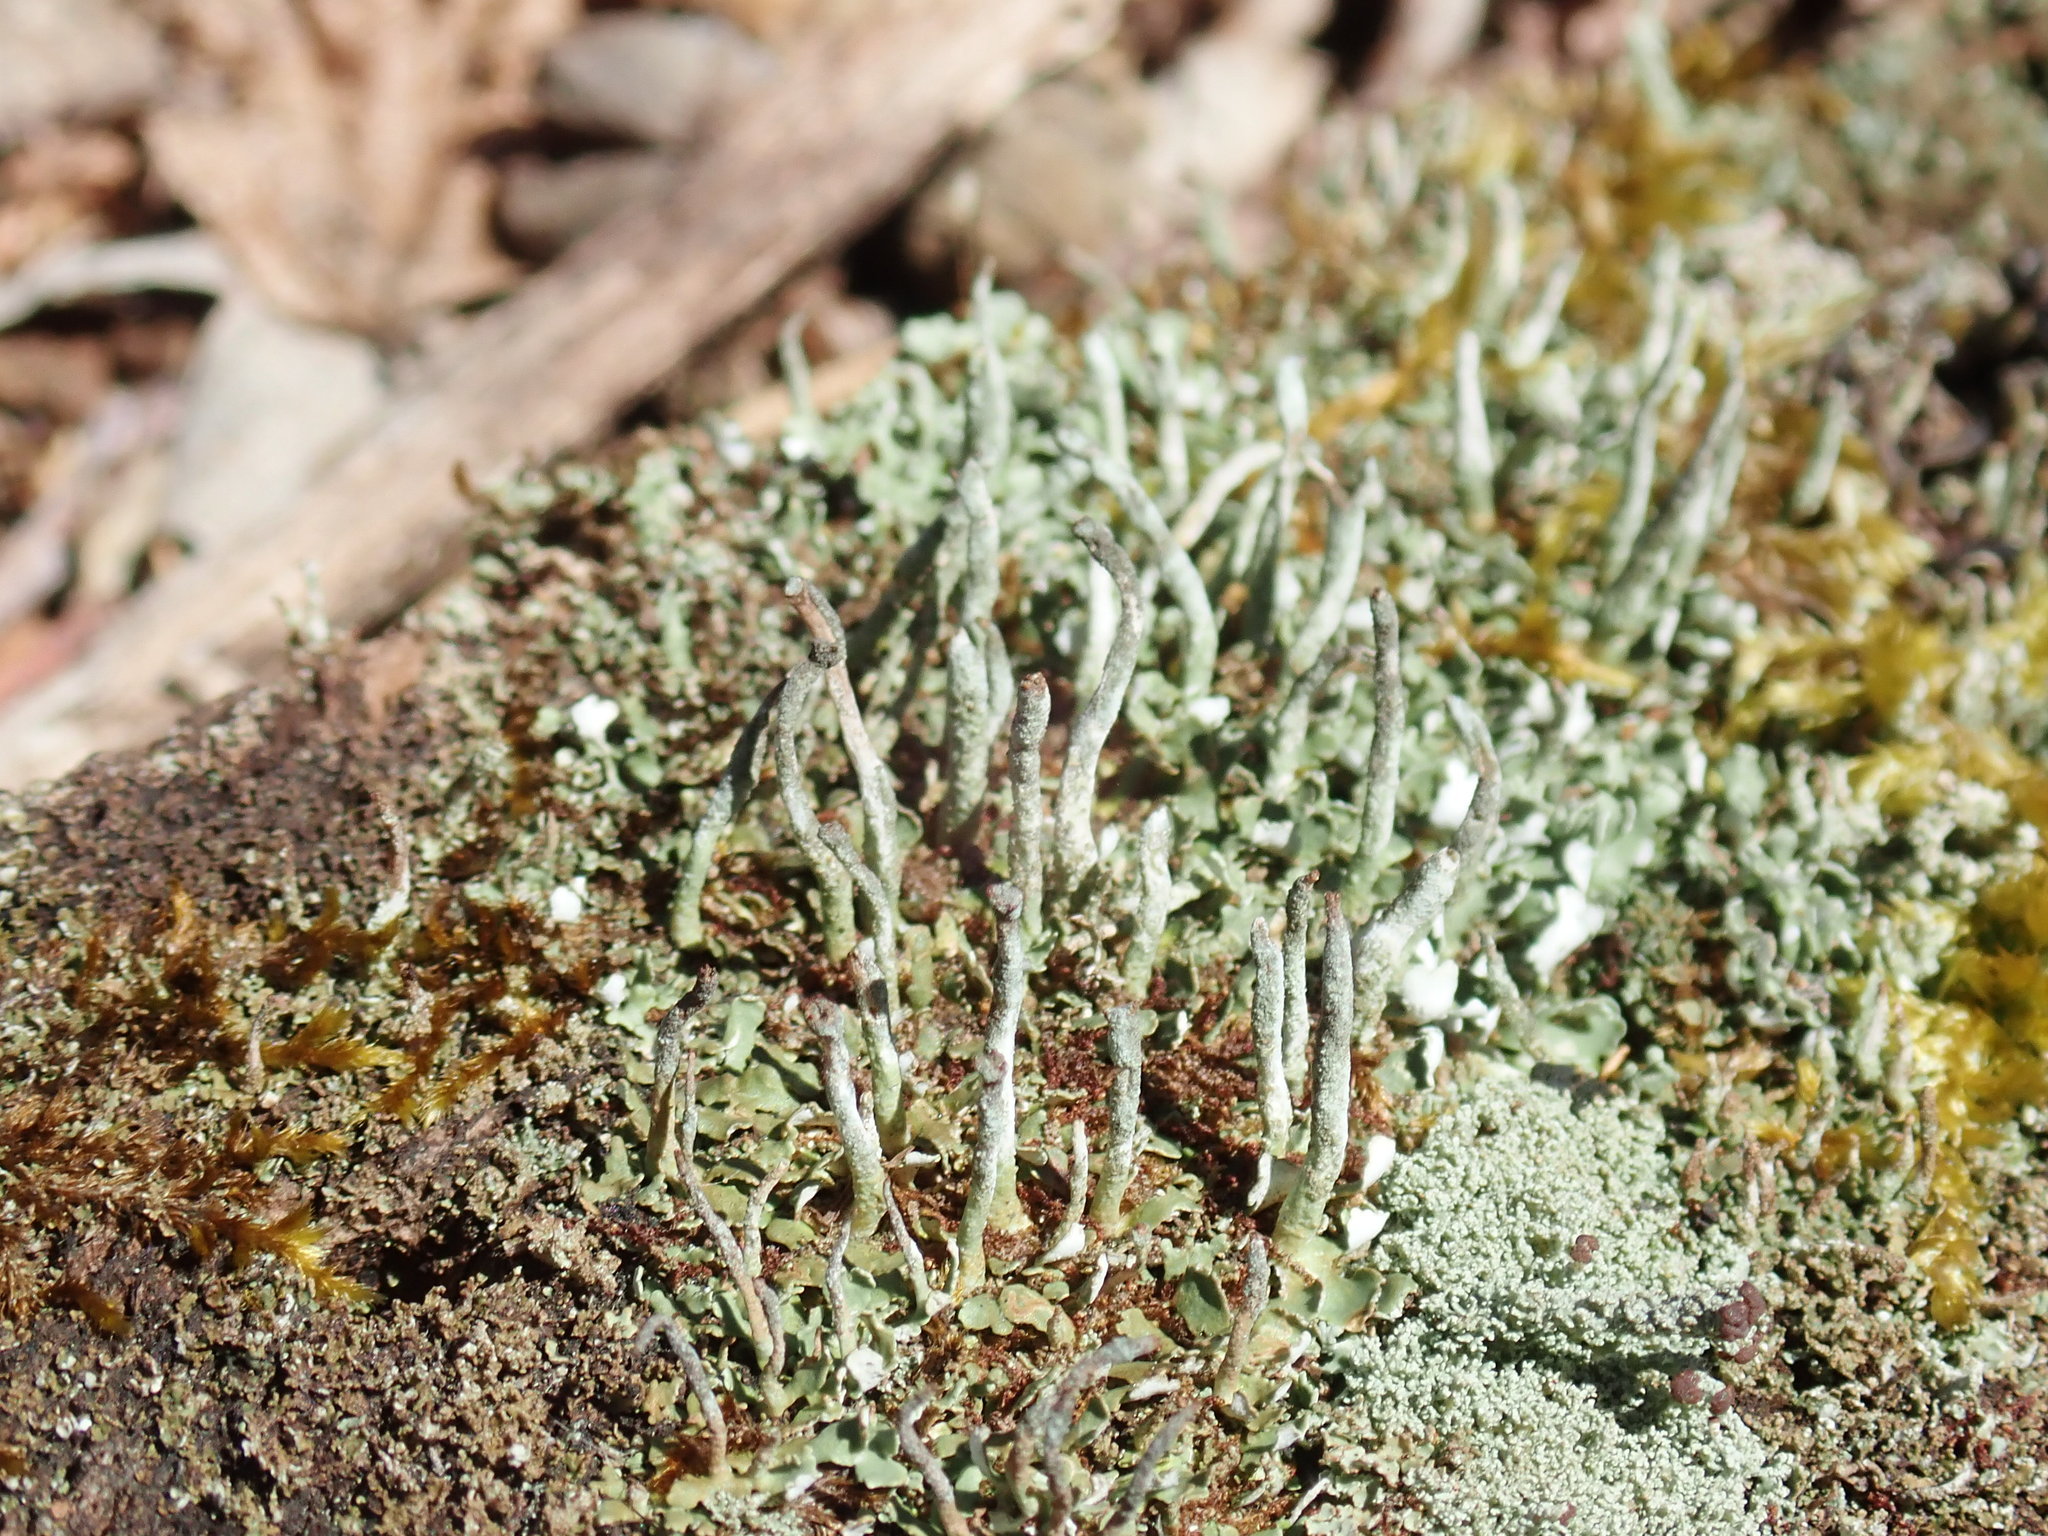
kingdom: Fungi
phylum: Ascomycota
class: Lecanoromycetes
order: Lecanorales
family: Cladoniaceae
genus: Cladonia
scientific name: Cladonia coniocraea
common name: Common powderhorn
